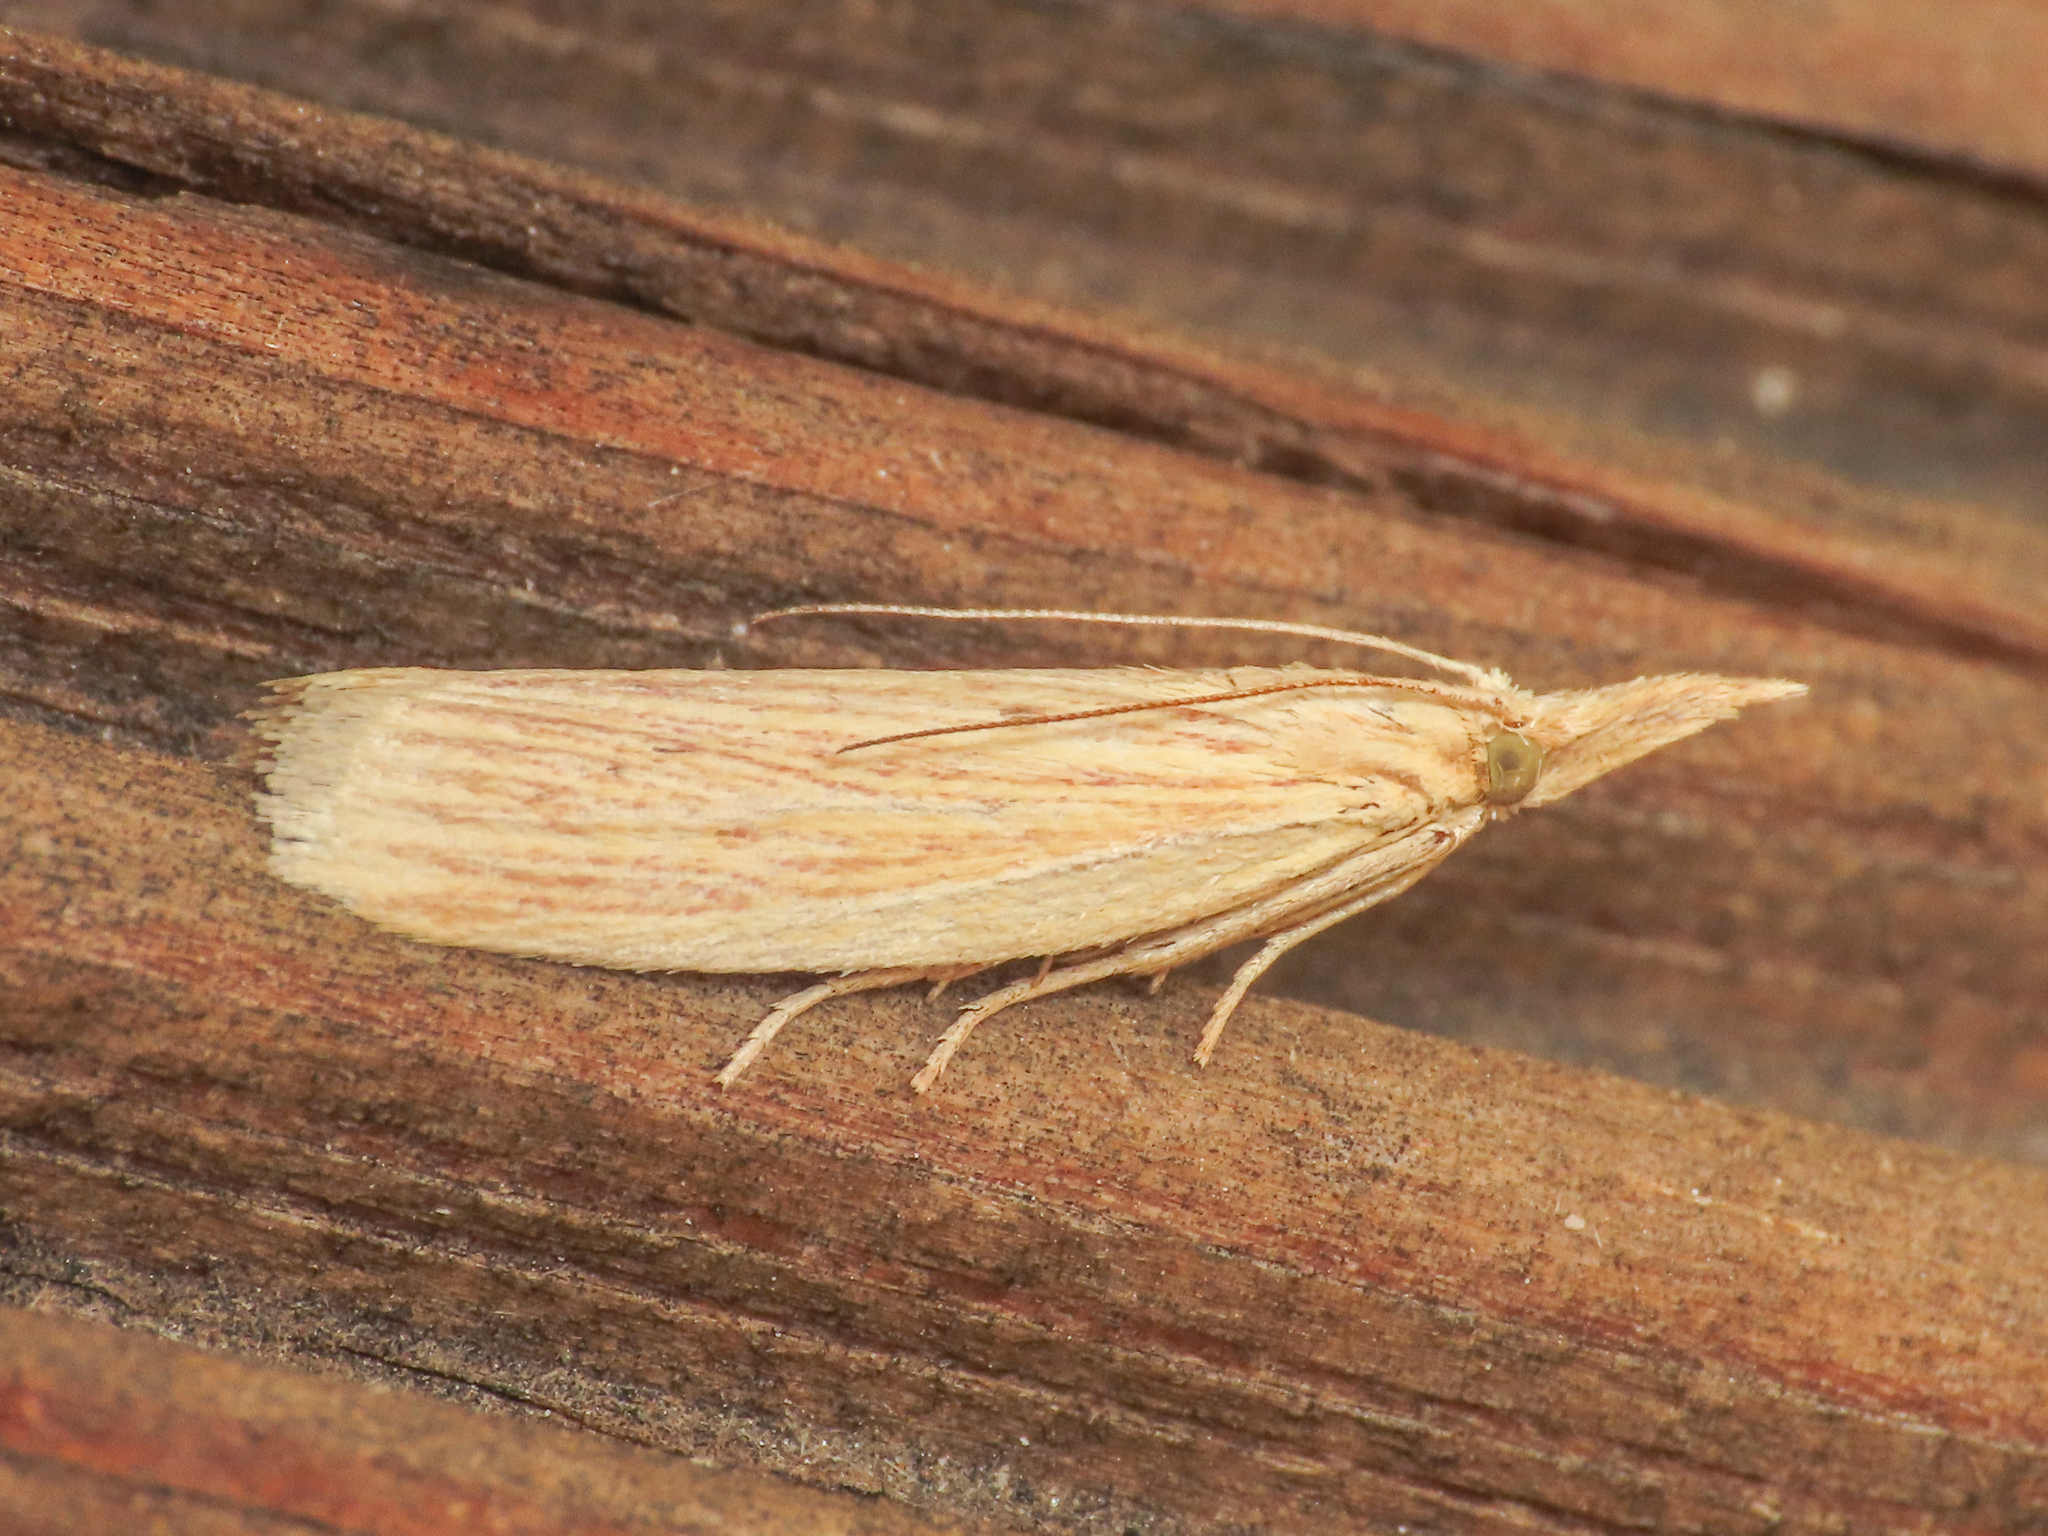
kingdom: Animalia
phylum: Arthropoda
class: Insecta
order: Lepidoptera
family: Pyralidae
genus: Ematheudes
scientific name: Ematheudes punctellus
